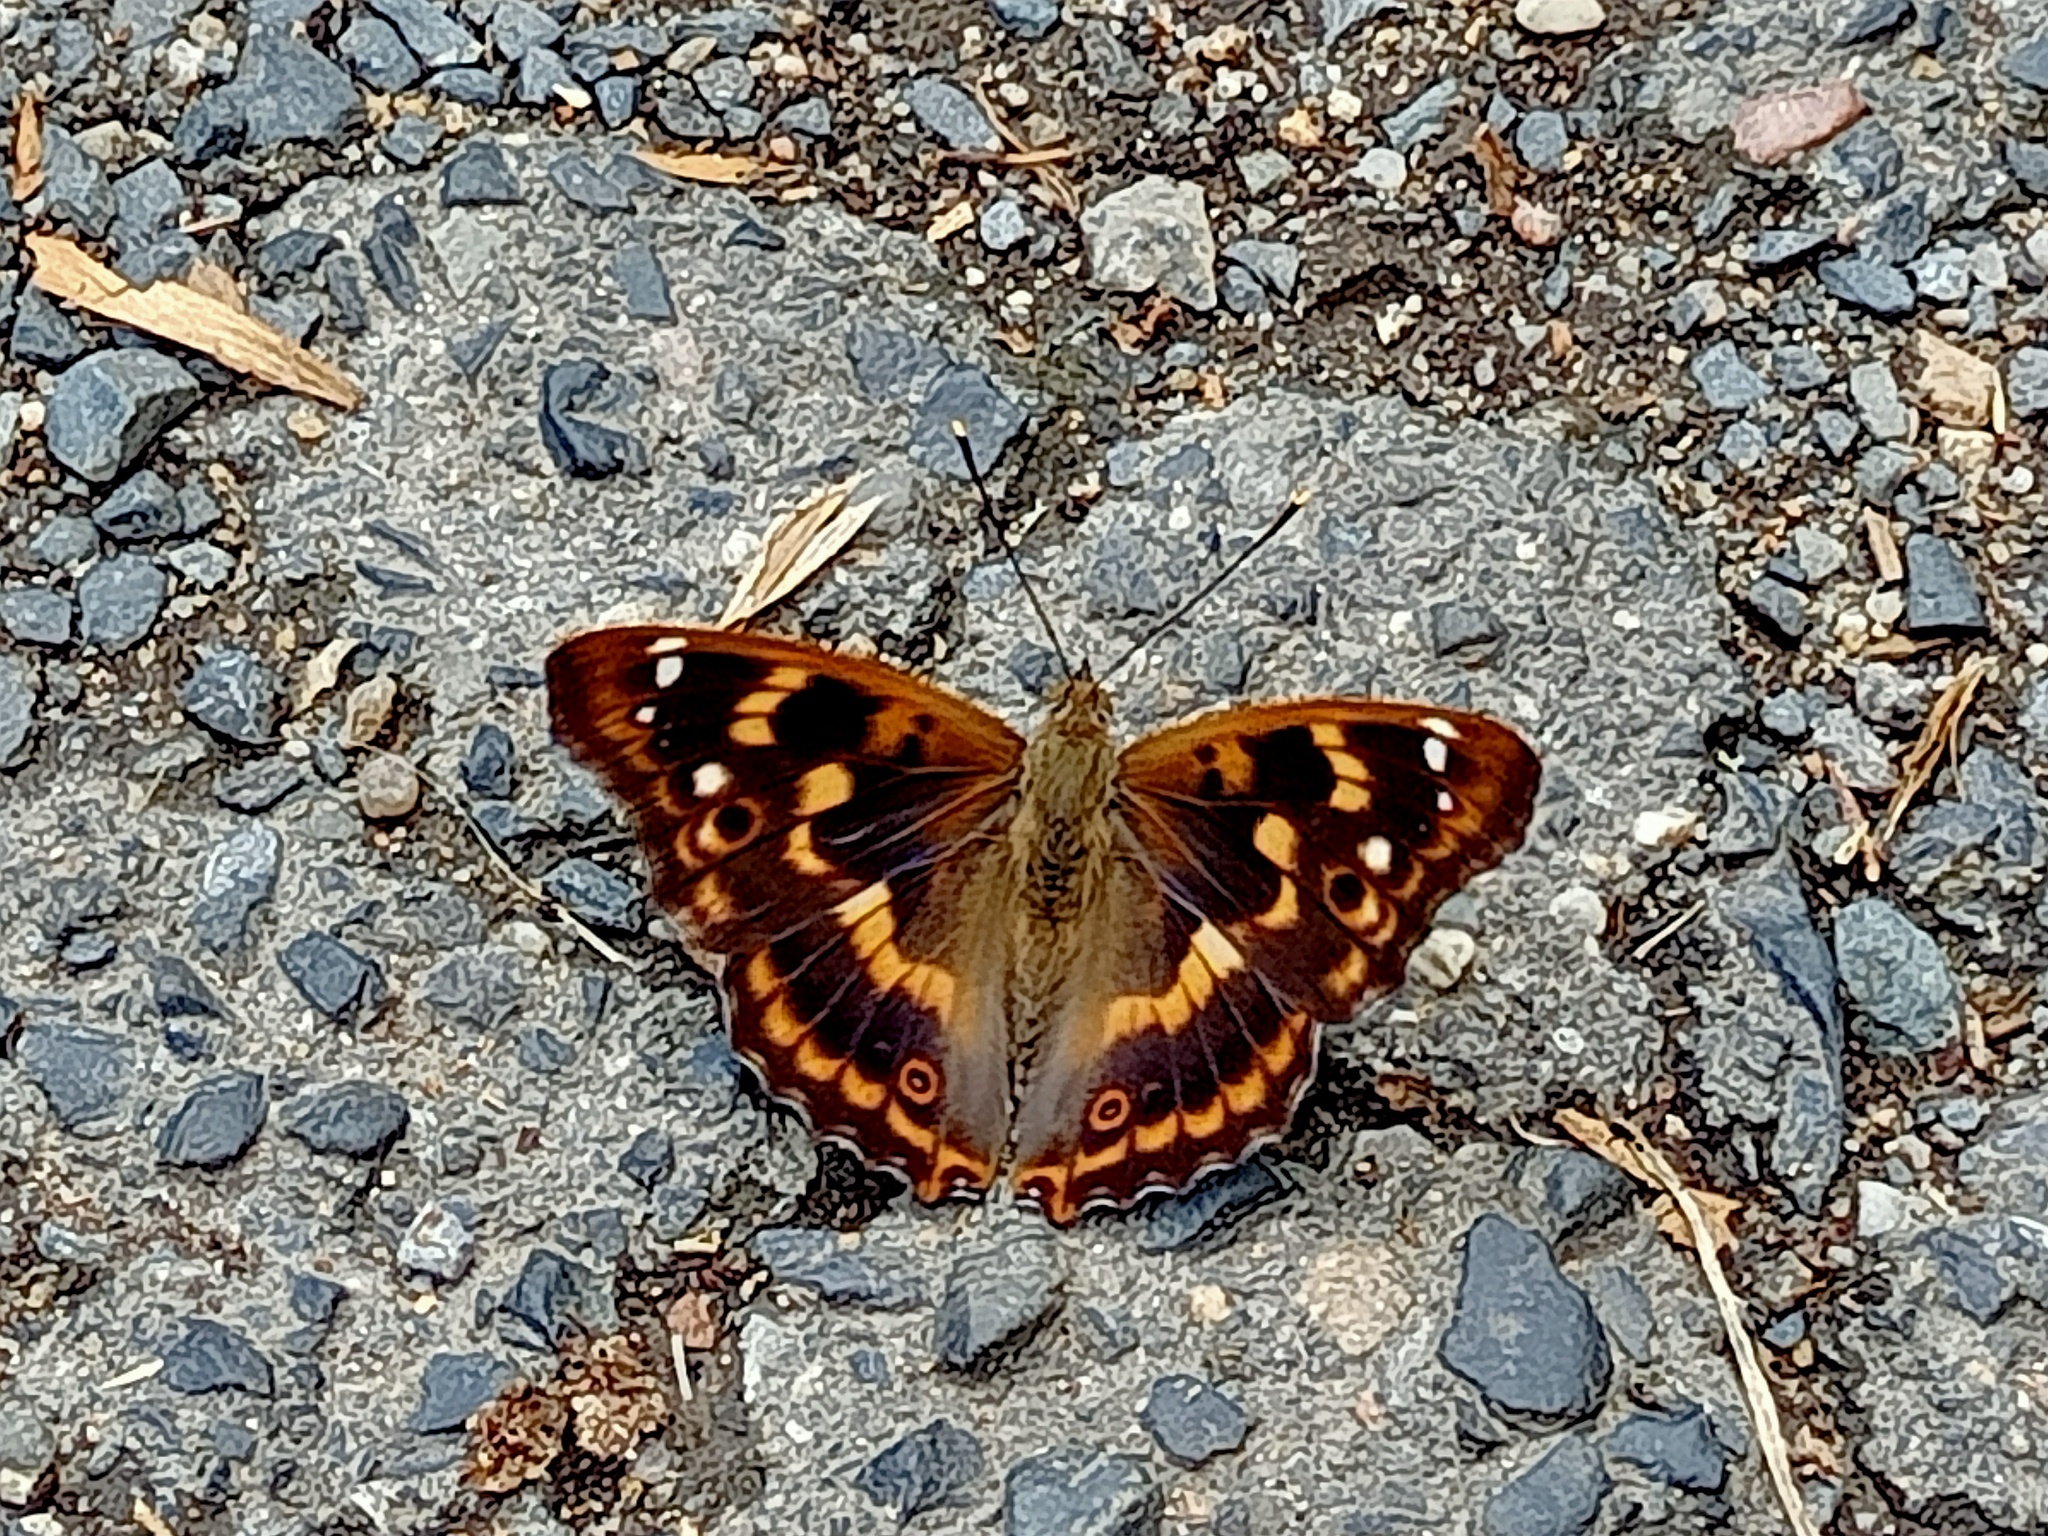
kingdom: Animalia
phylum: Arthropoda
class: Insecta
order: Lepidoptera
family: Nymphalidae
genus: Apatura
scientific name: Apatura ilia
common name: Lesser purple emperor
